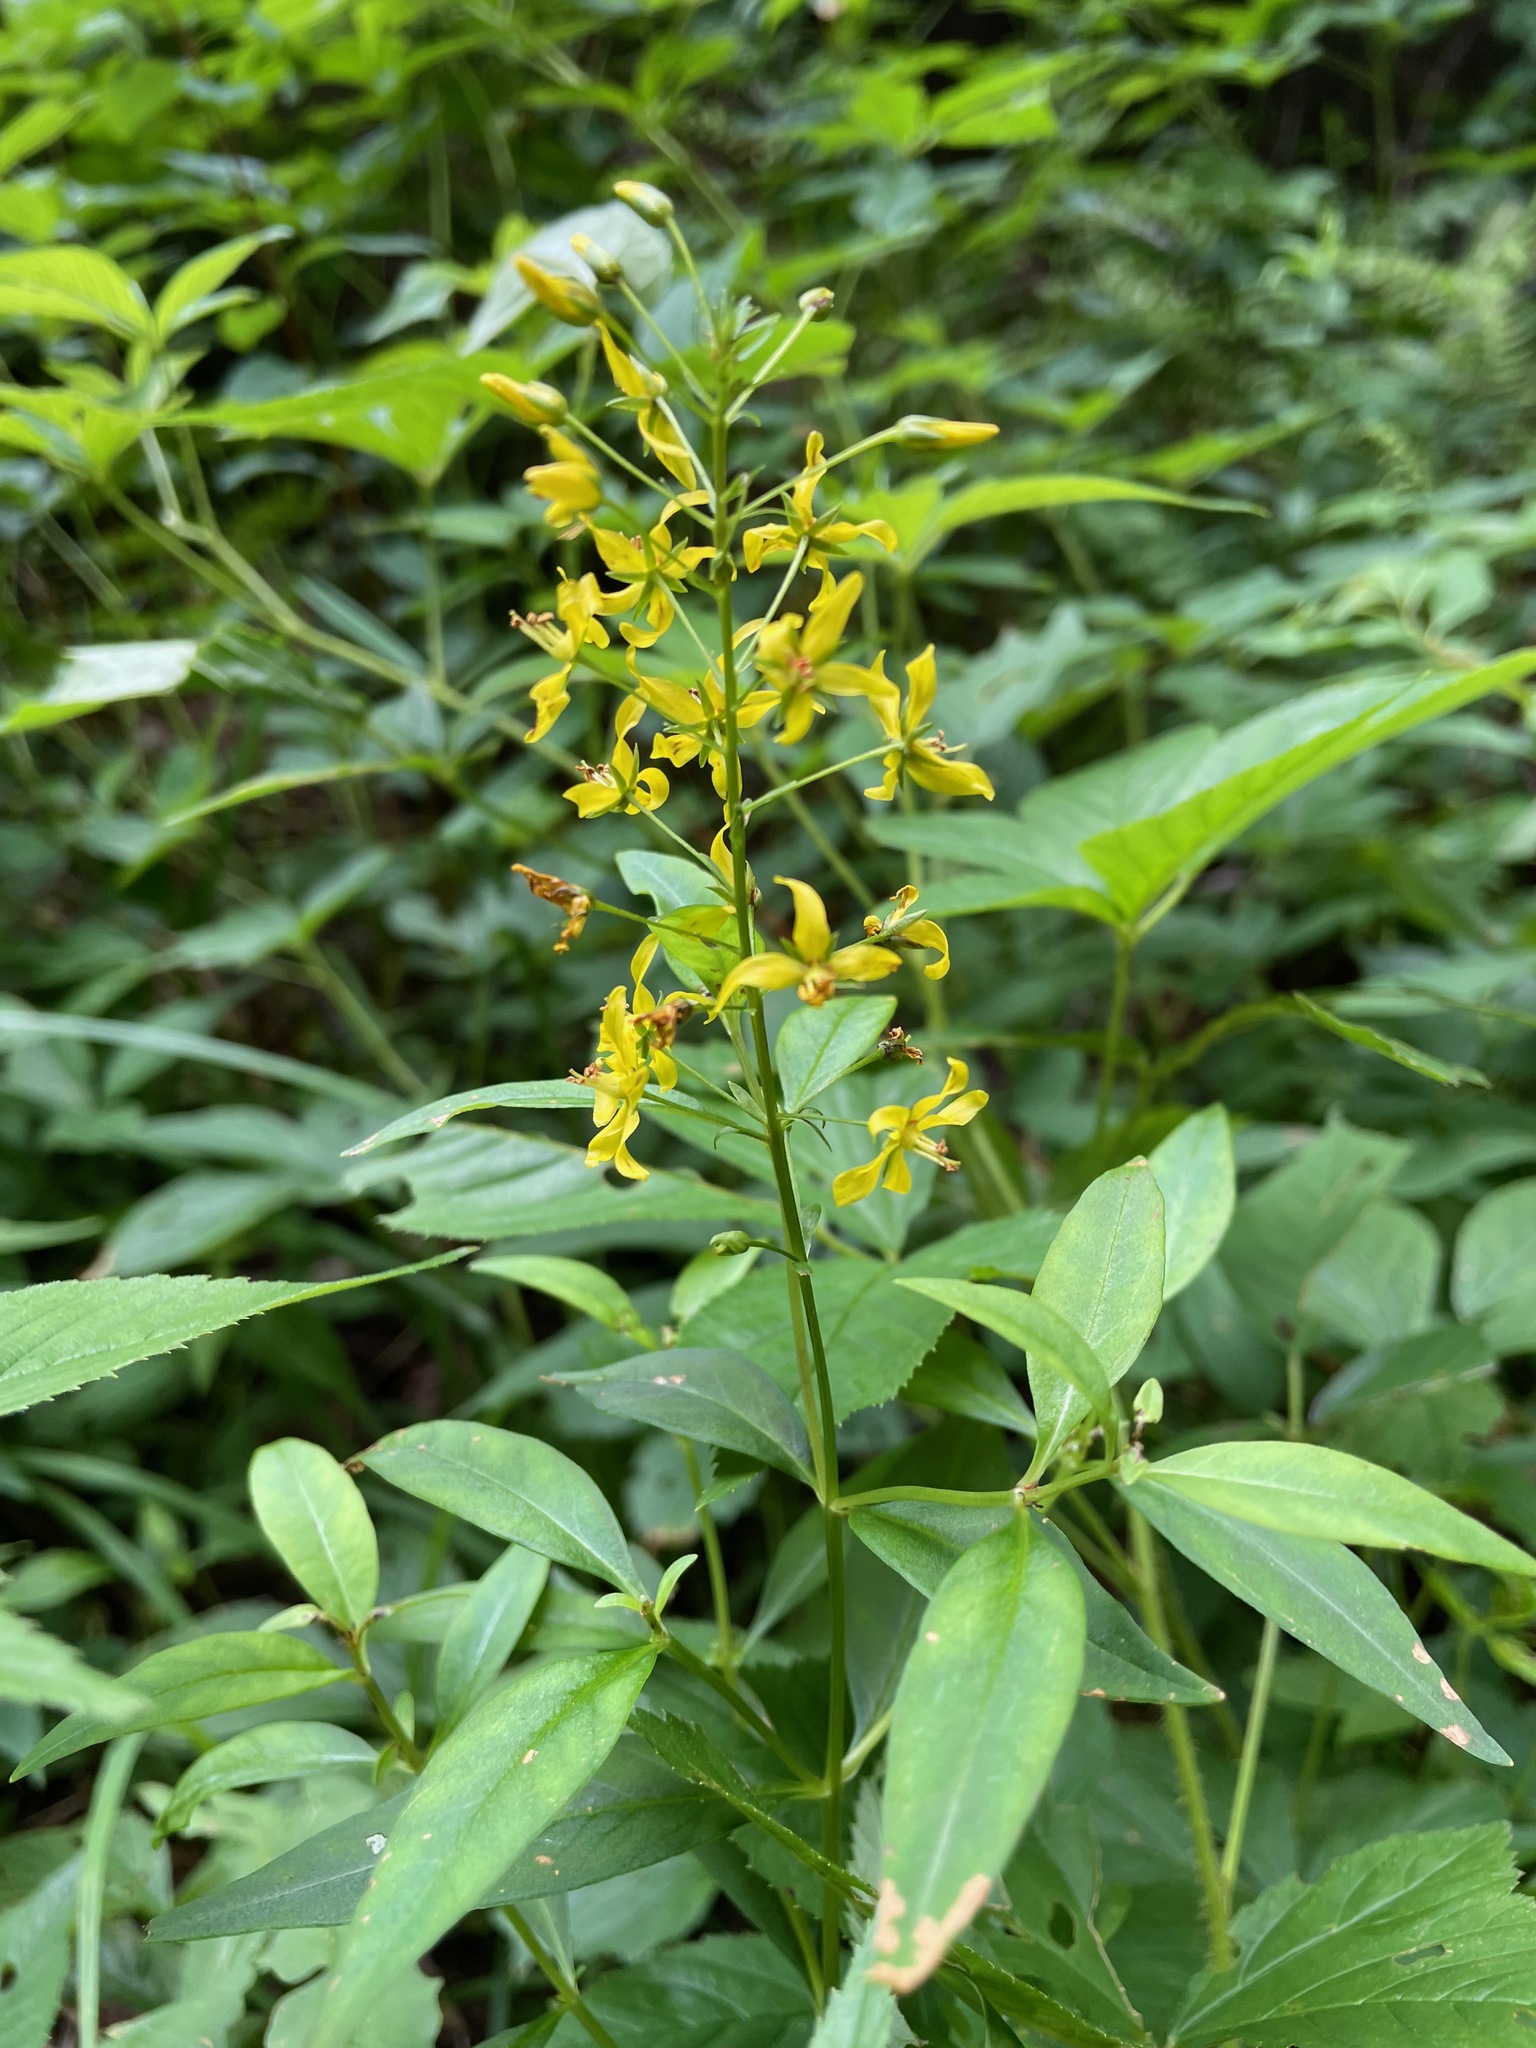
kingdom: Plantae
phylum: Tracheophyta
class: Magnoliopsida
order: Ericales
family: Primulaceae
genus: Lysimachia
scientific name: Lysimachia terrestris
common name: Lake loosestrife
